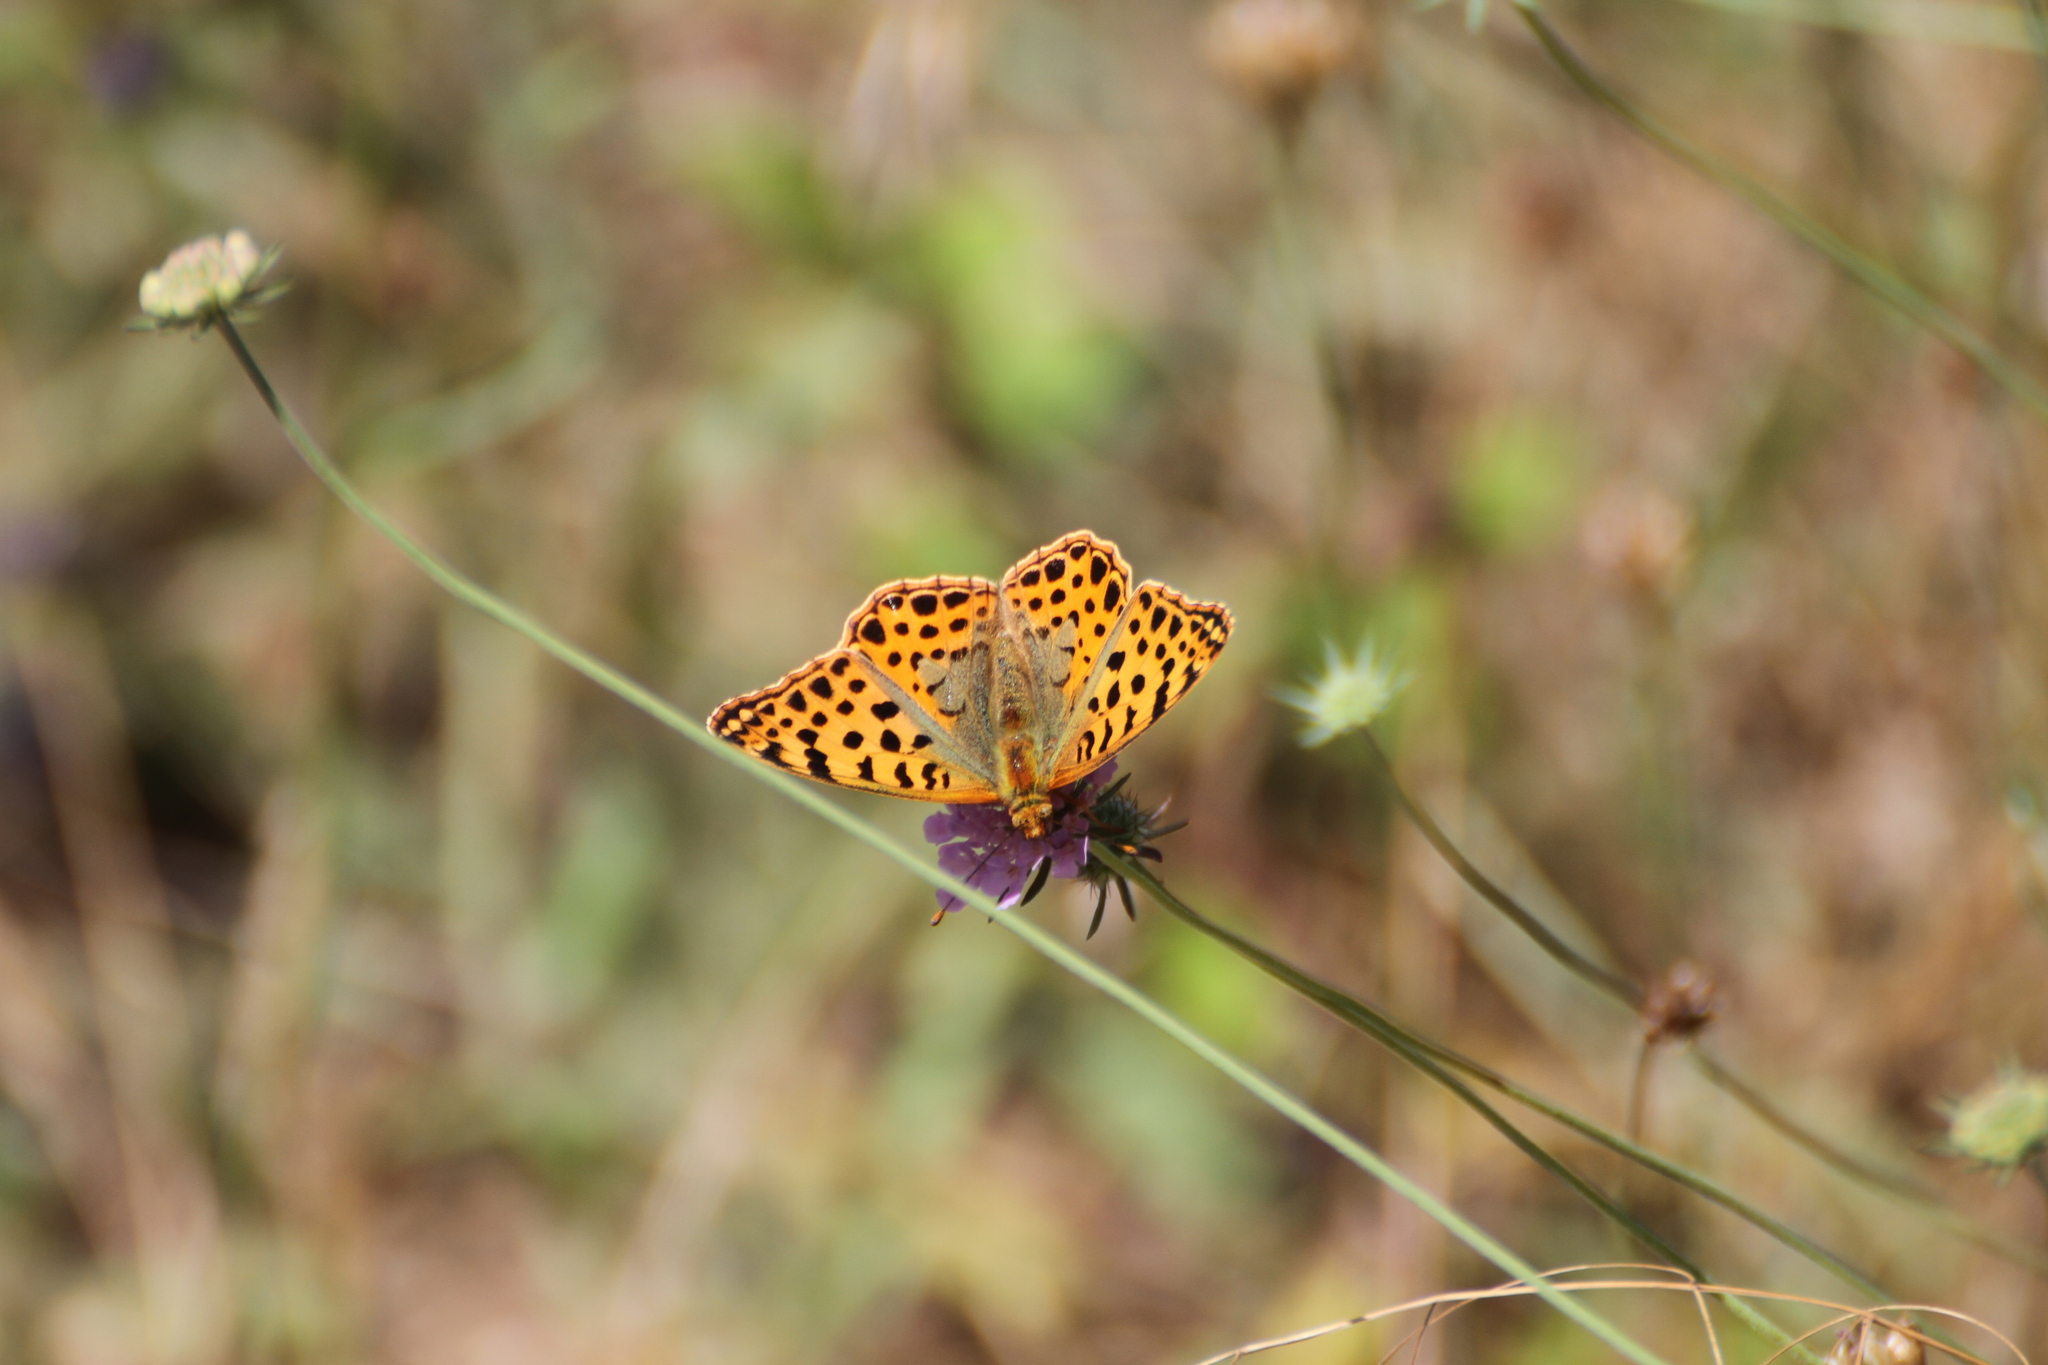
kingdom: Animalia
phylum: Arthropoda
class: Insecta
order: Lepidoptera
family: Nymphalidae
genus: Issoria
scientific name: Issoria lathonia
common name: Queen of spain fritillary
